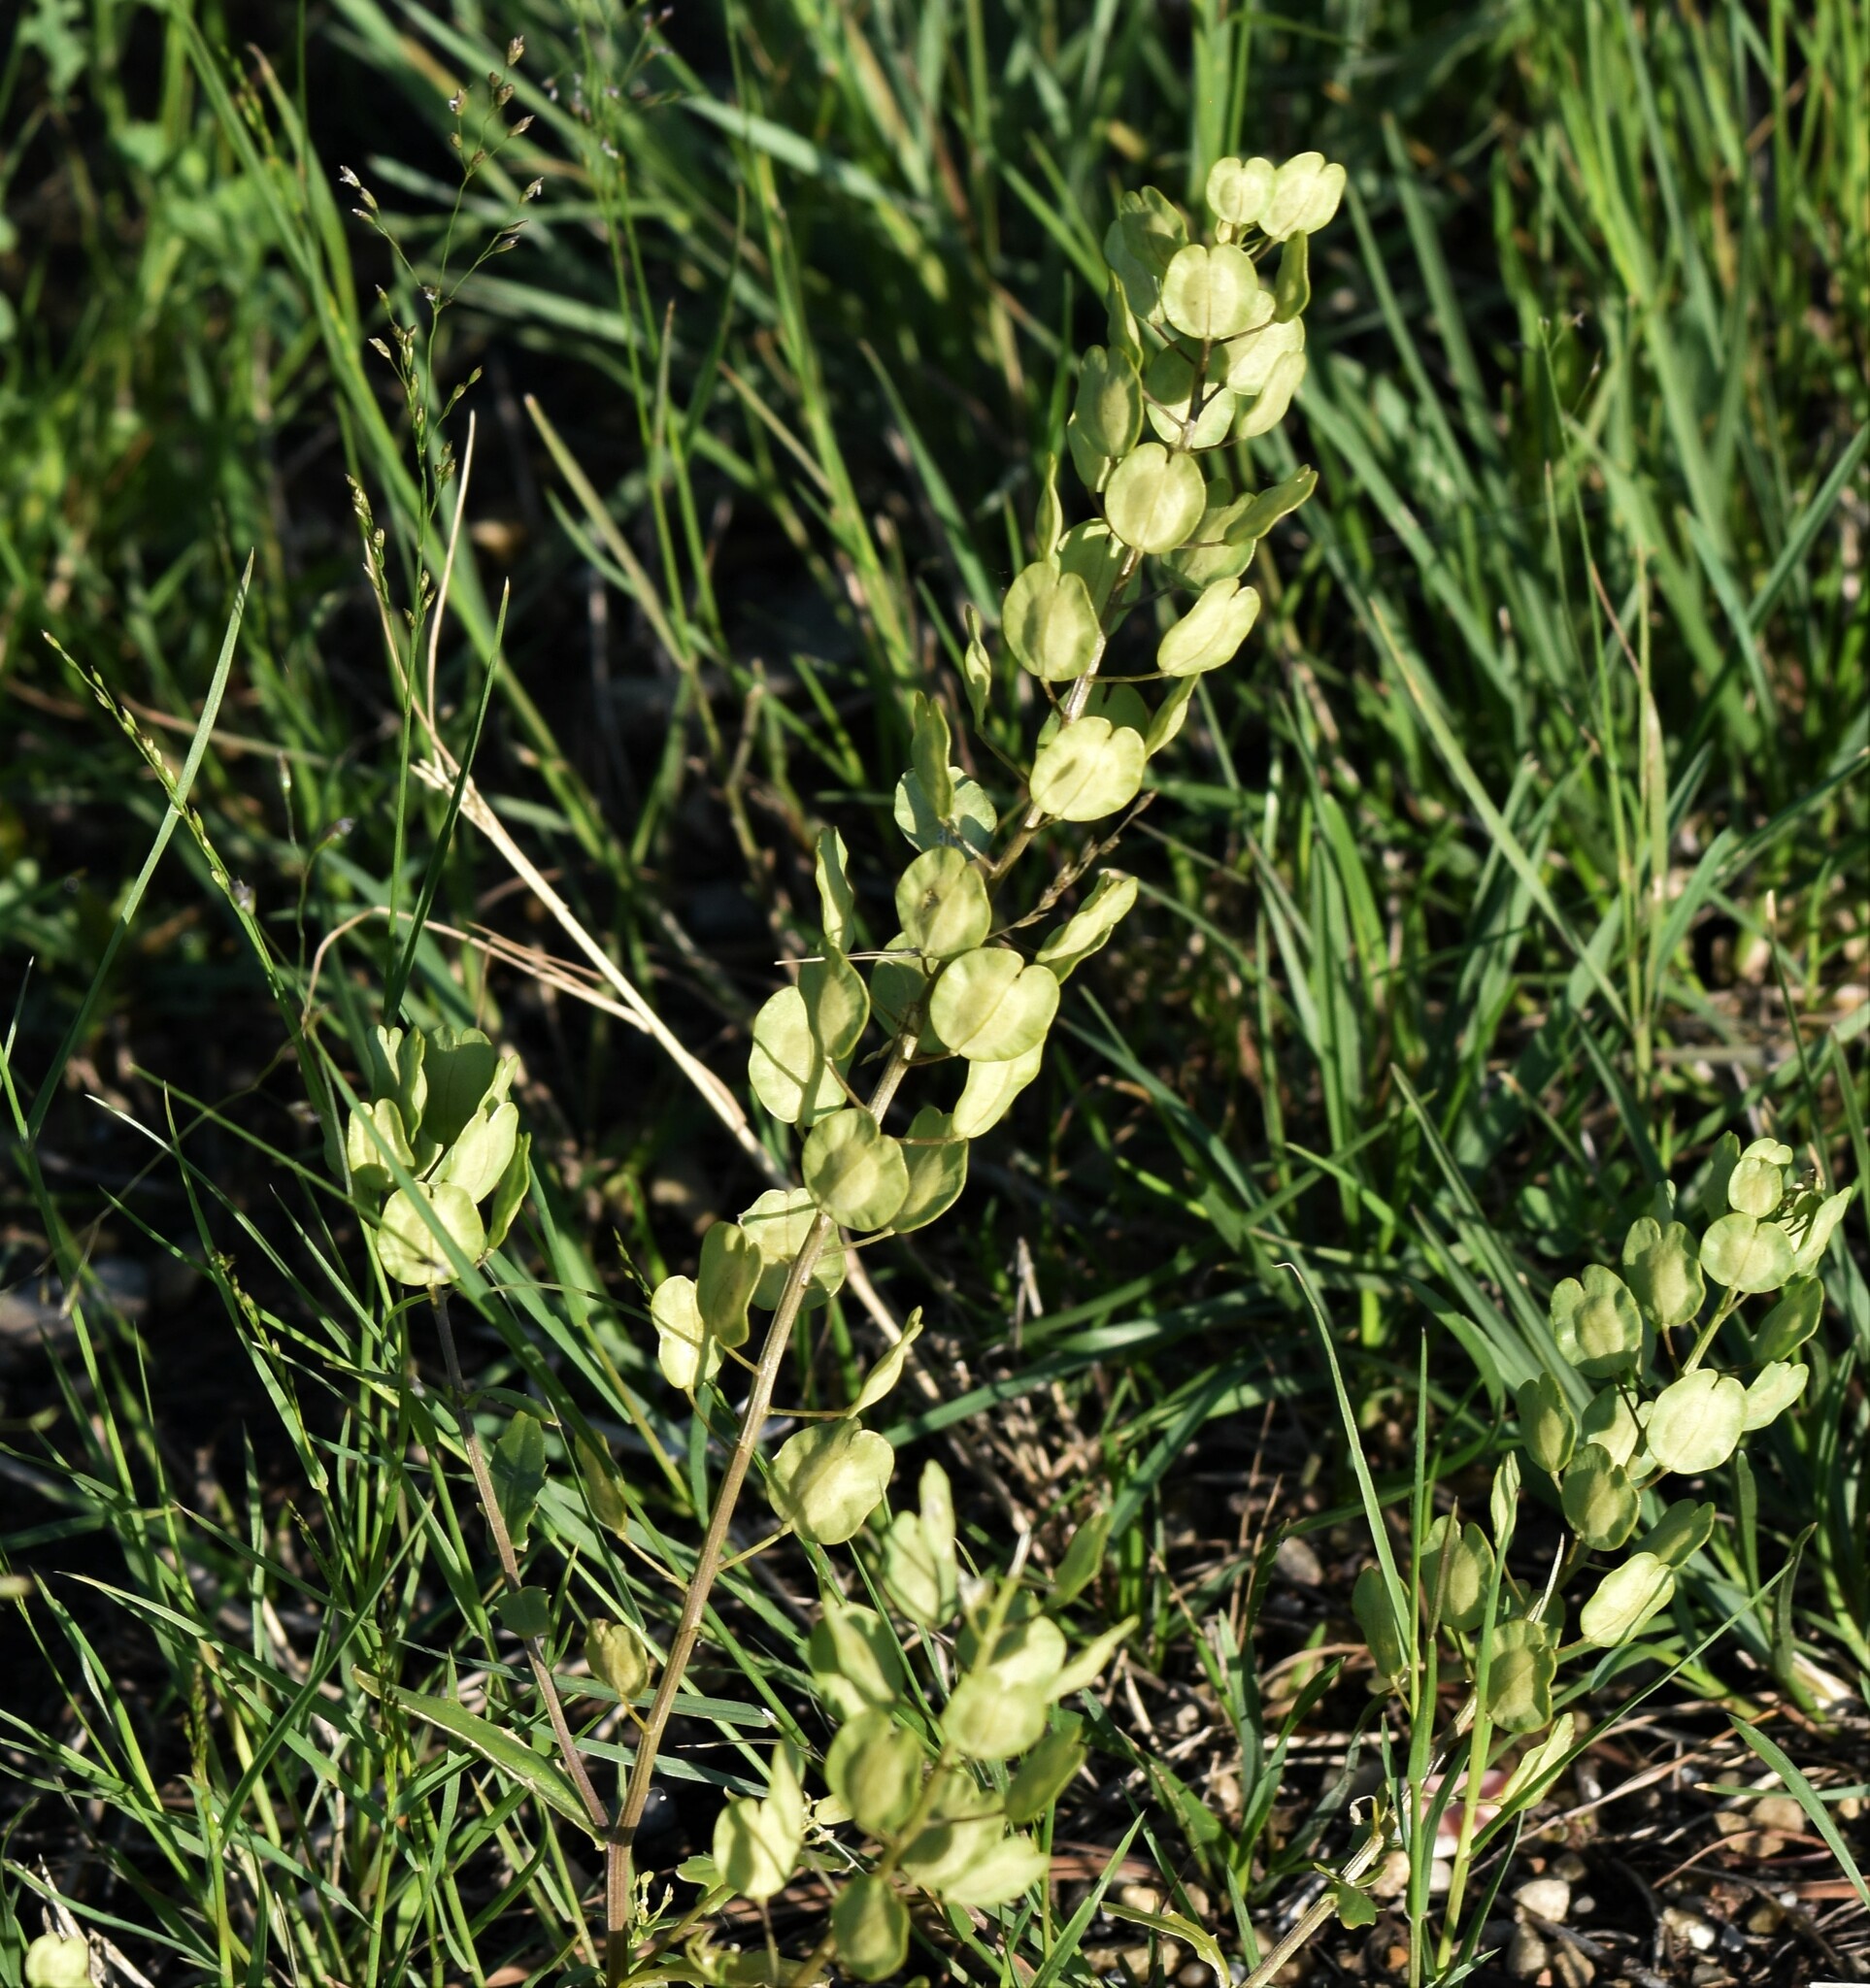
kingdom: Plantae
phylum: Tracheophyta
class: Magnoliopsida
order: Brassicales
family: Brassicaceae
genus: Thlaspi
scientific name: Thlaspi arvense
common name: Field pennycress
